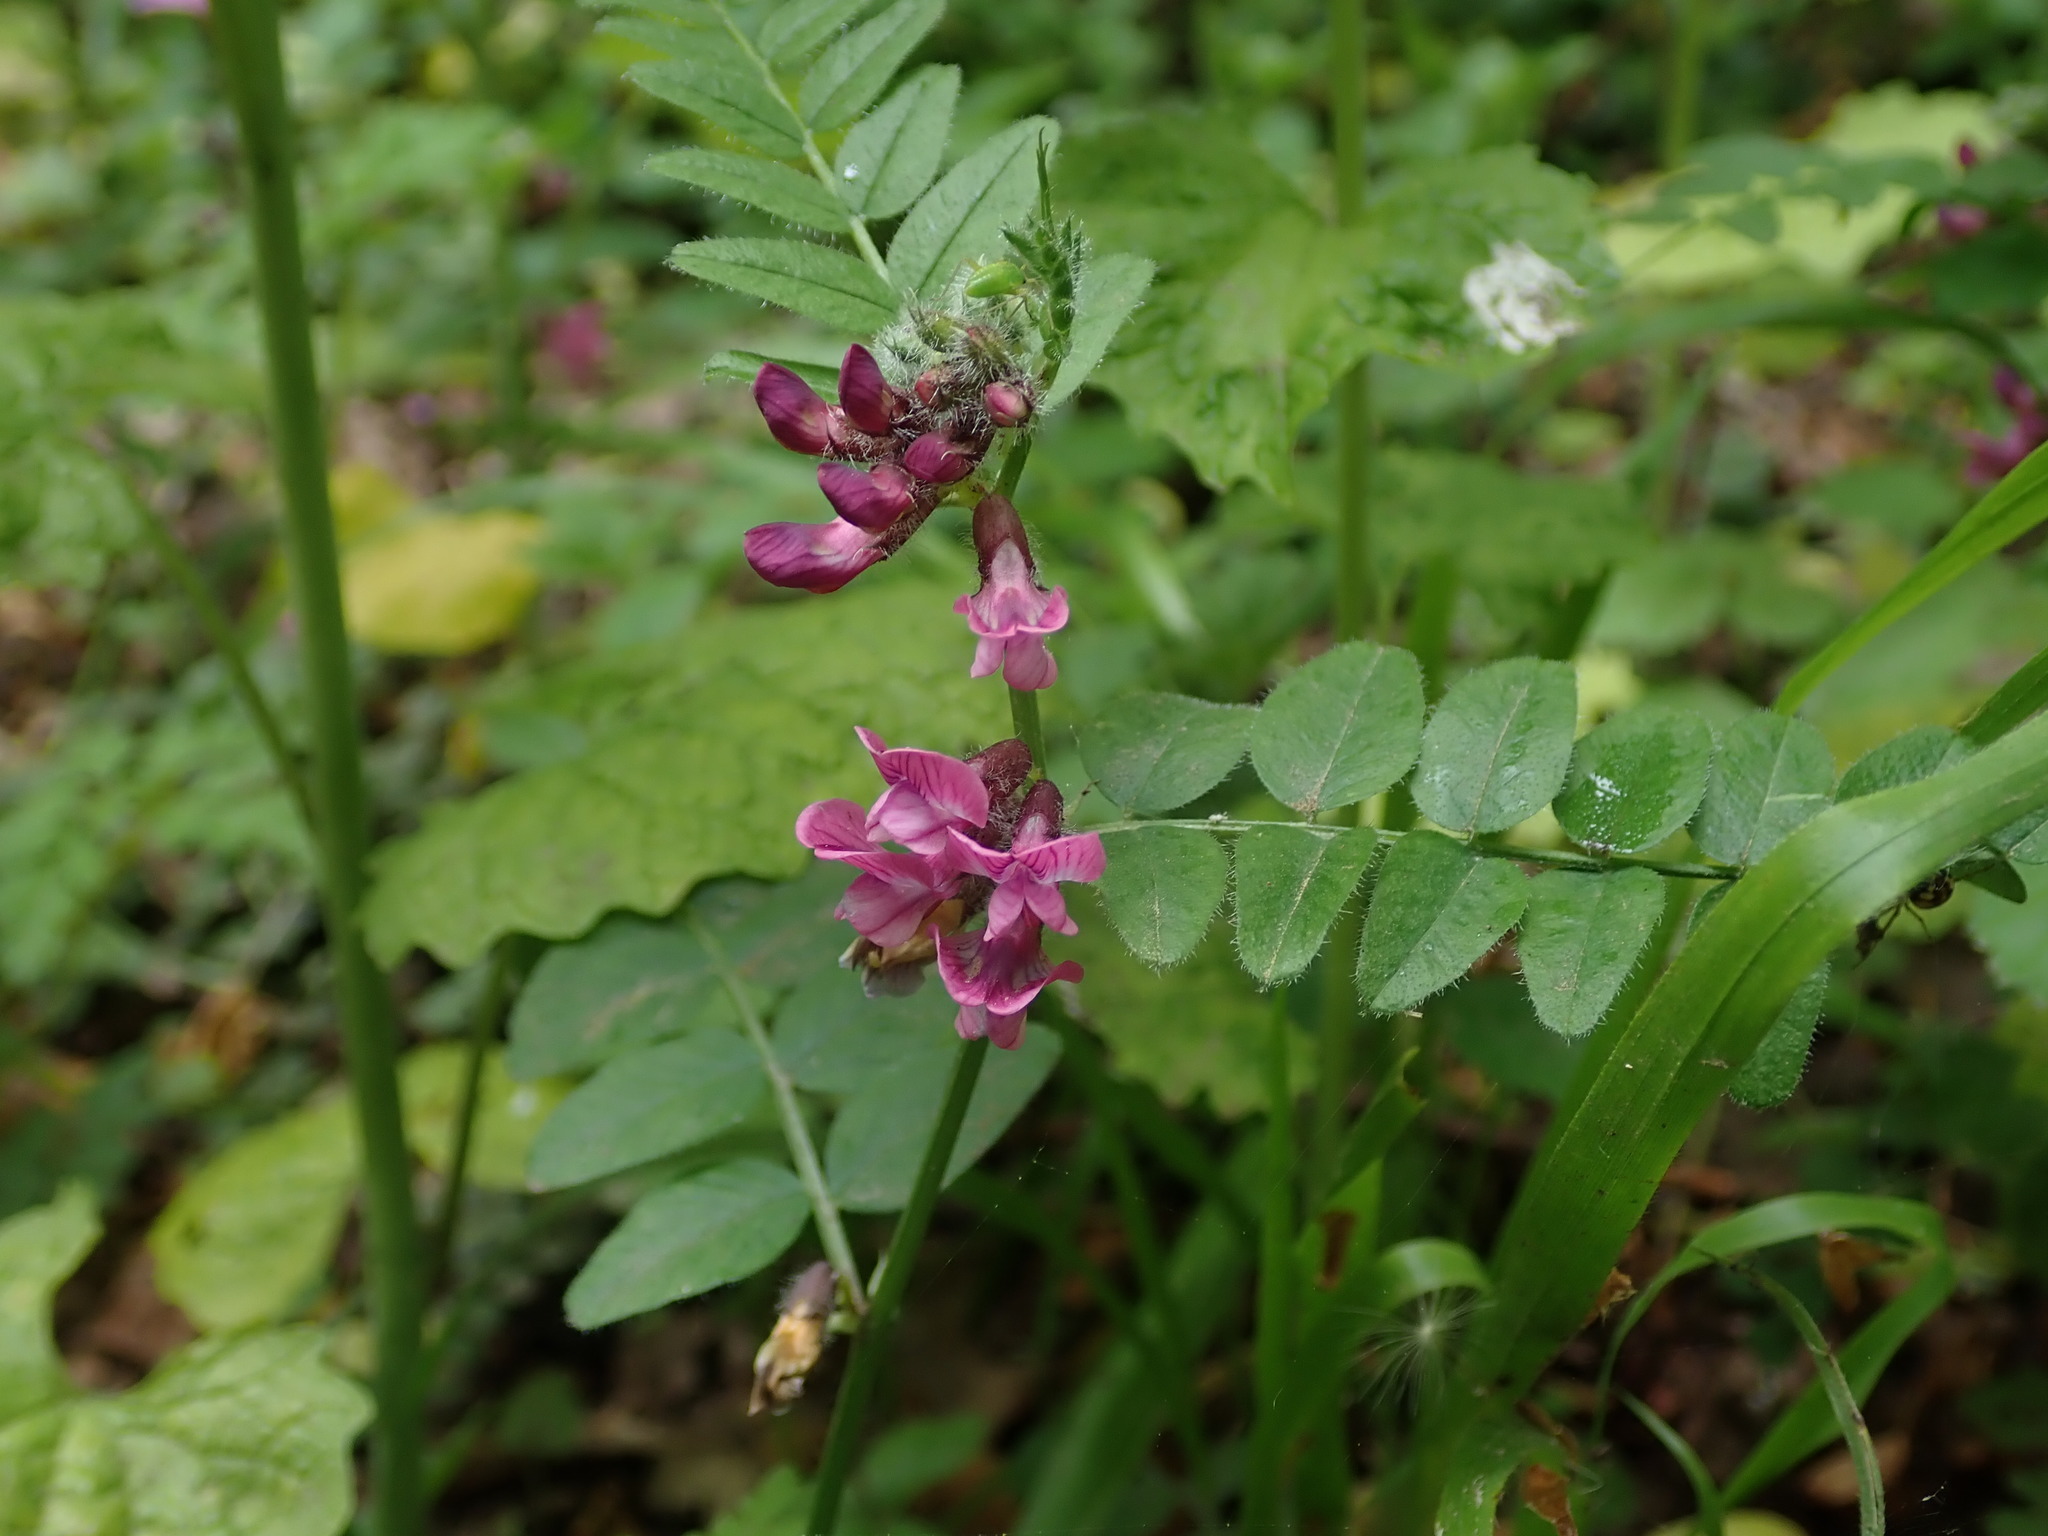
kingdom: Plantae
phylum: Tracheophyta
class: Magnoliopsida
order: Fabales
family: Fabaceae
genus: Vicia
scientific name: Vicia sepium
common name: Bush vetch
